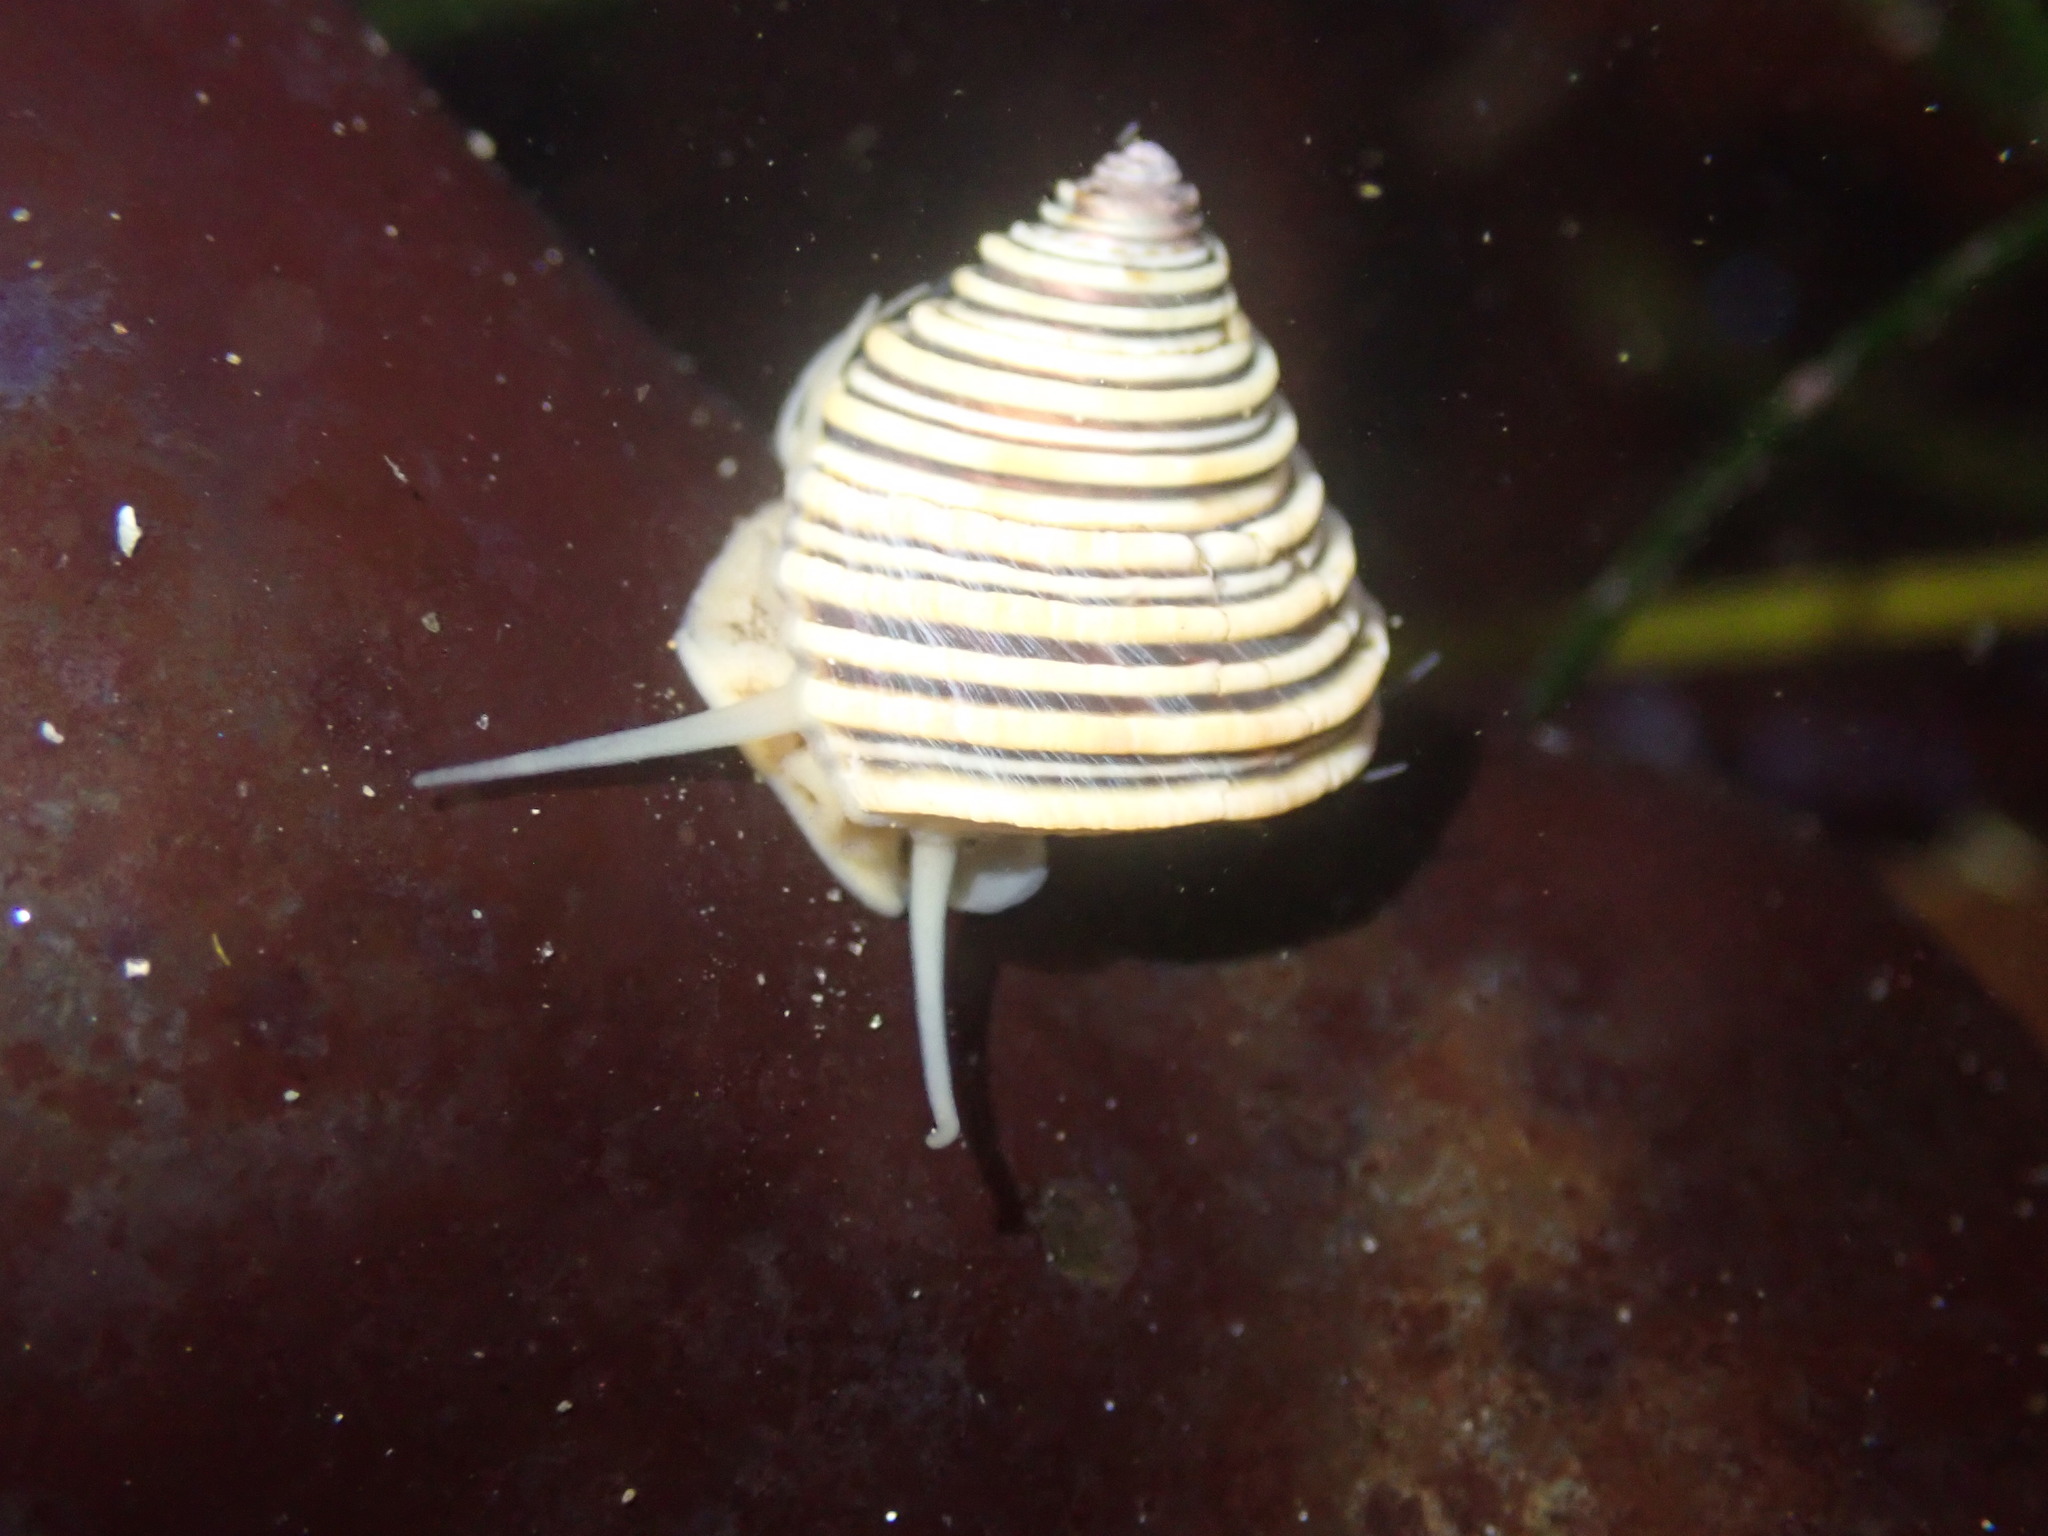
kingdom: Animalia
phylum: Mollusca
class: Gastropoda
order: Trochida
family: Calliostomatidae
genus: Calliostoma
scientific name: Calliostoma canaliculatum
